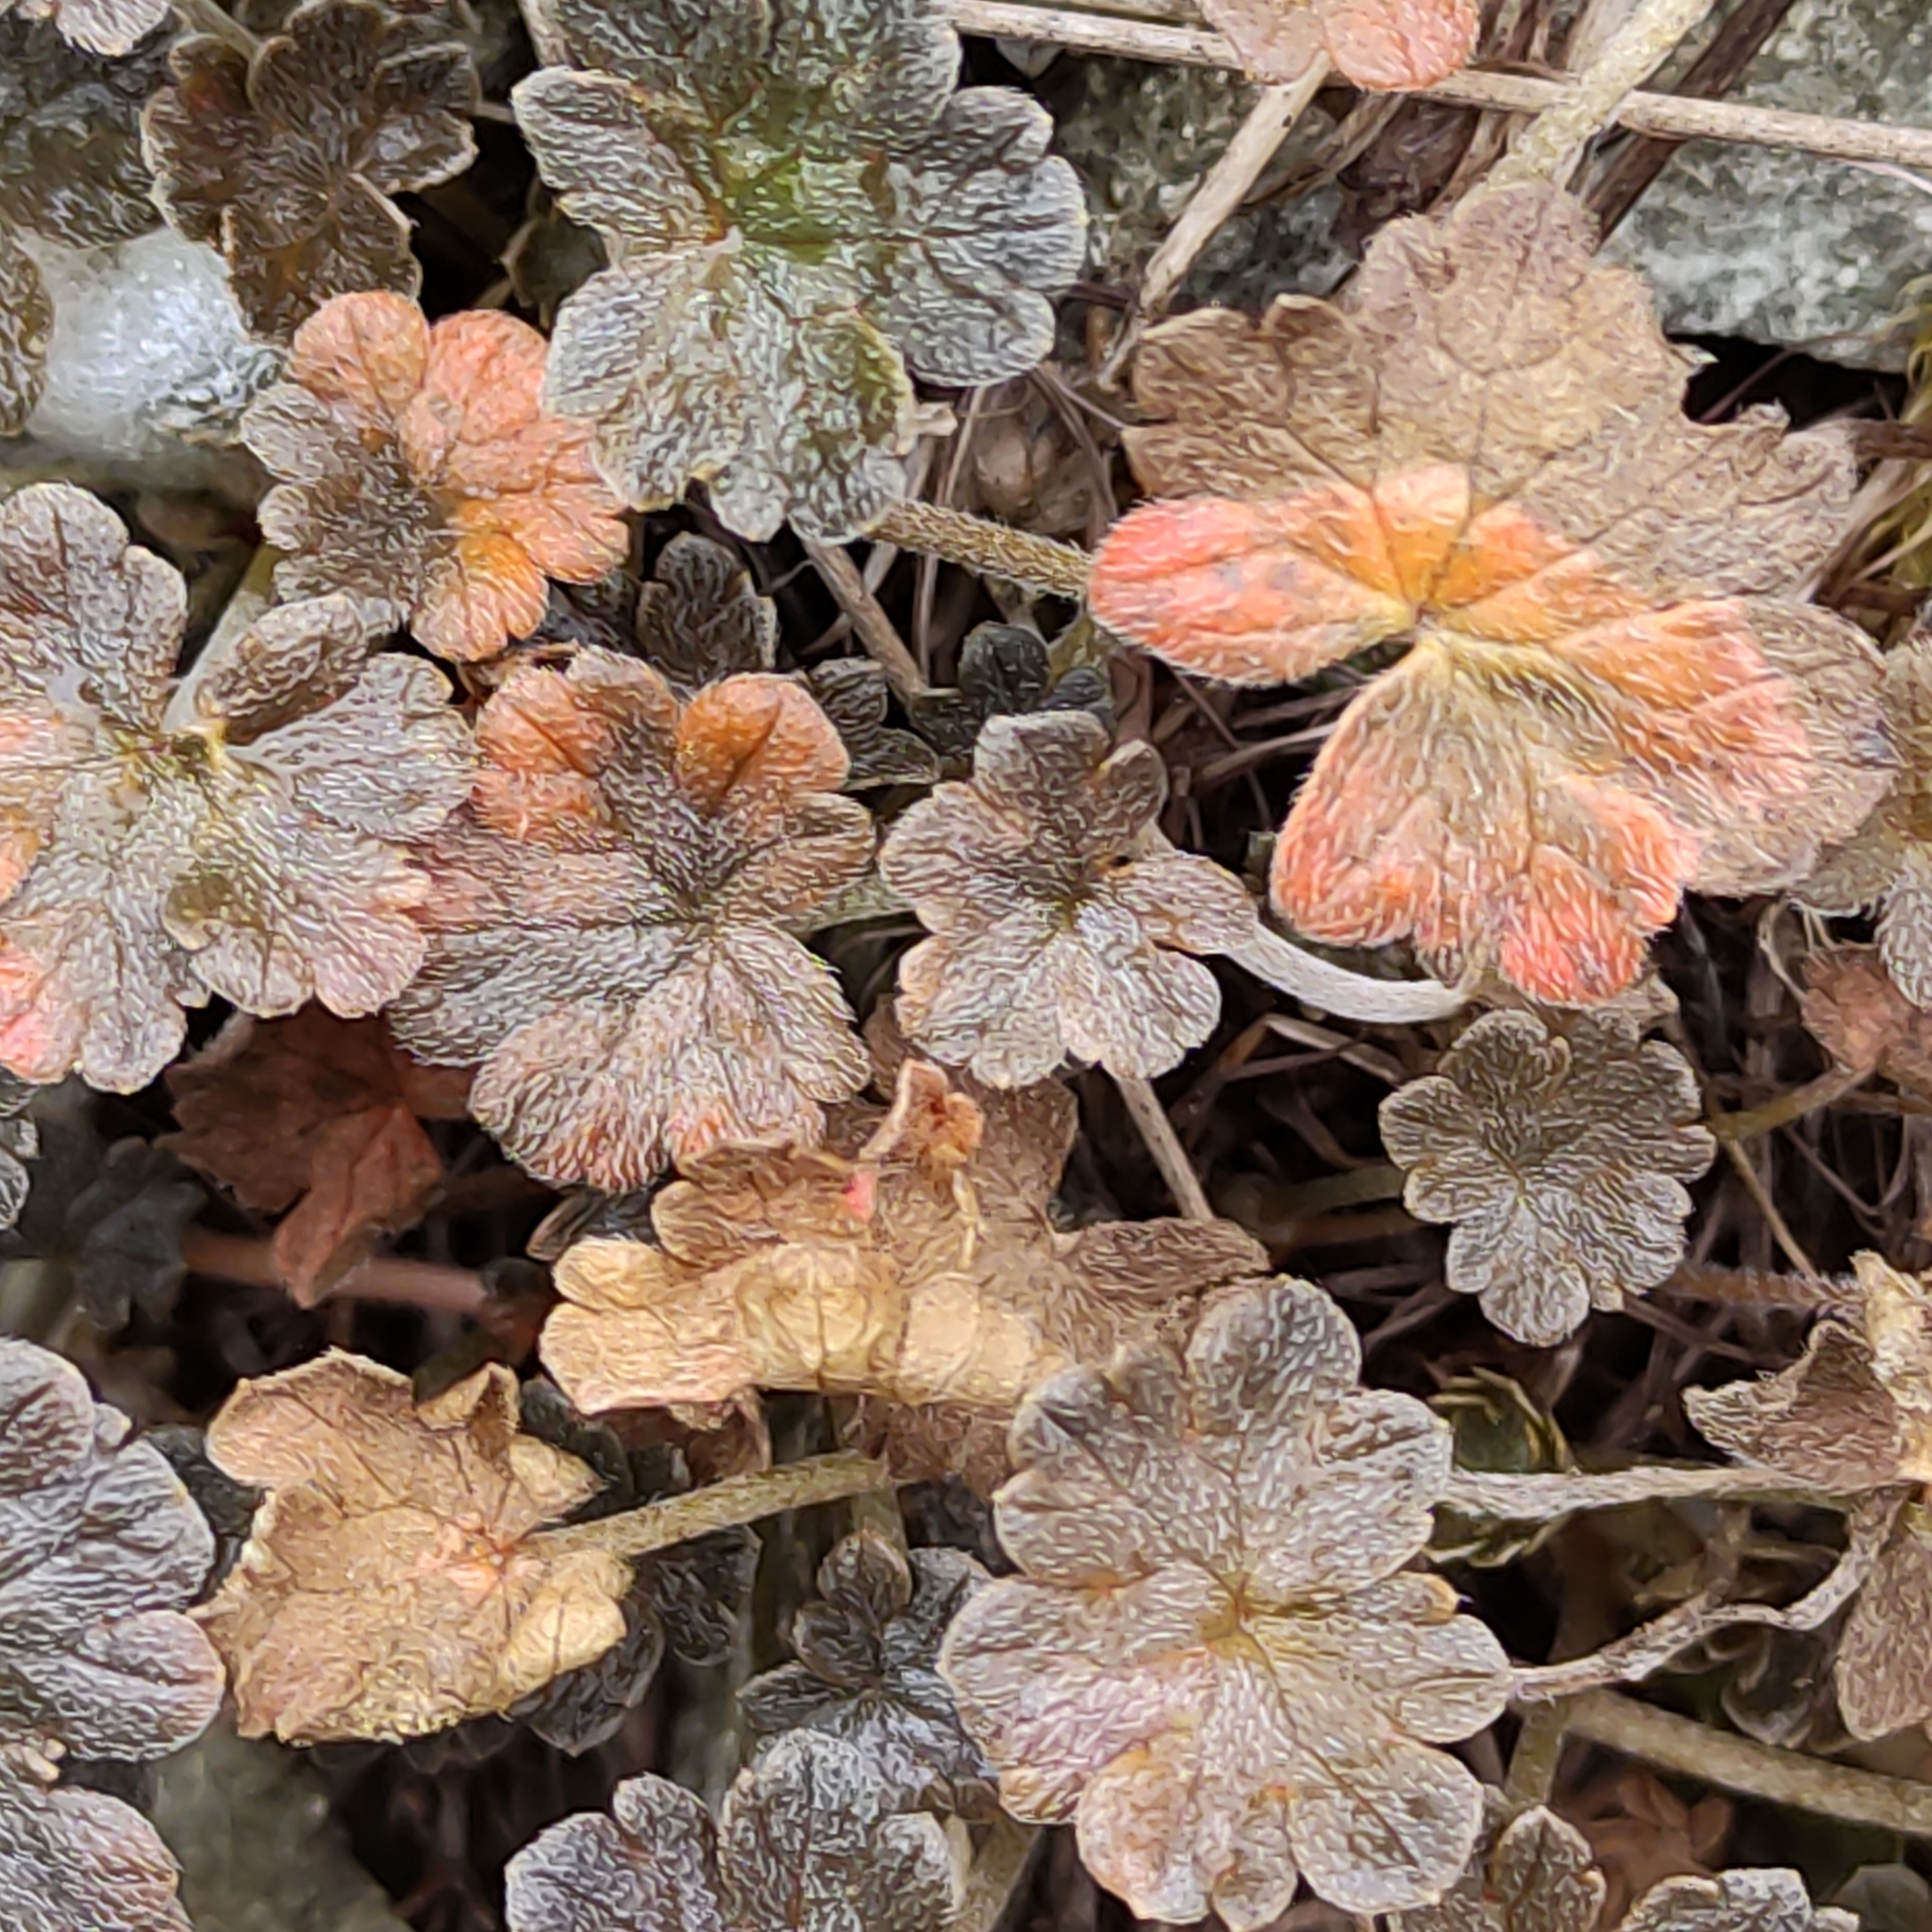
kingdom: Plantae
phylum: Tracheophyta
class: Magnoliopsida
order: Geraniales
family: Geraniaceae
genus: Geranium
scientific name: Geranium brevicaule
